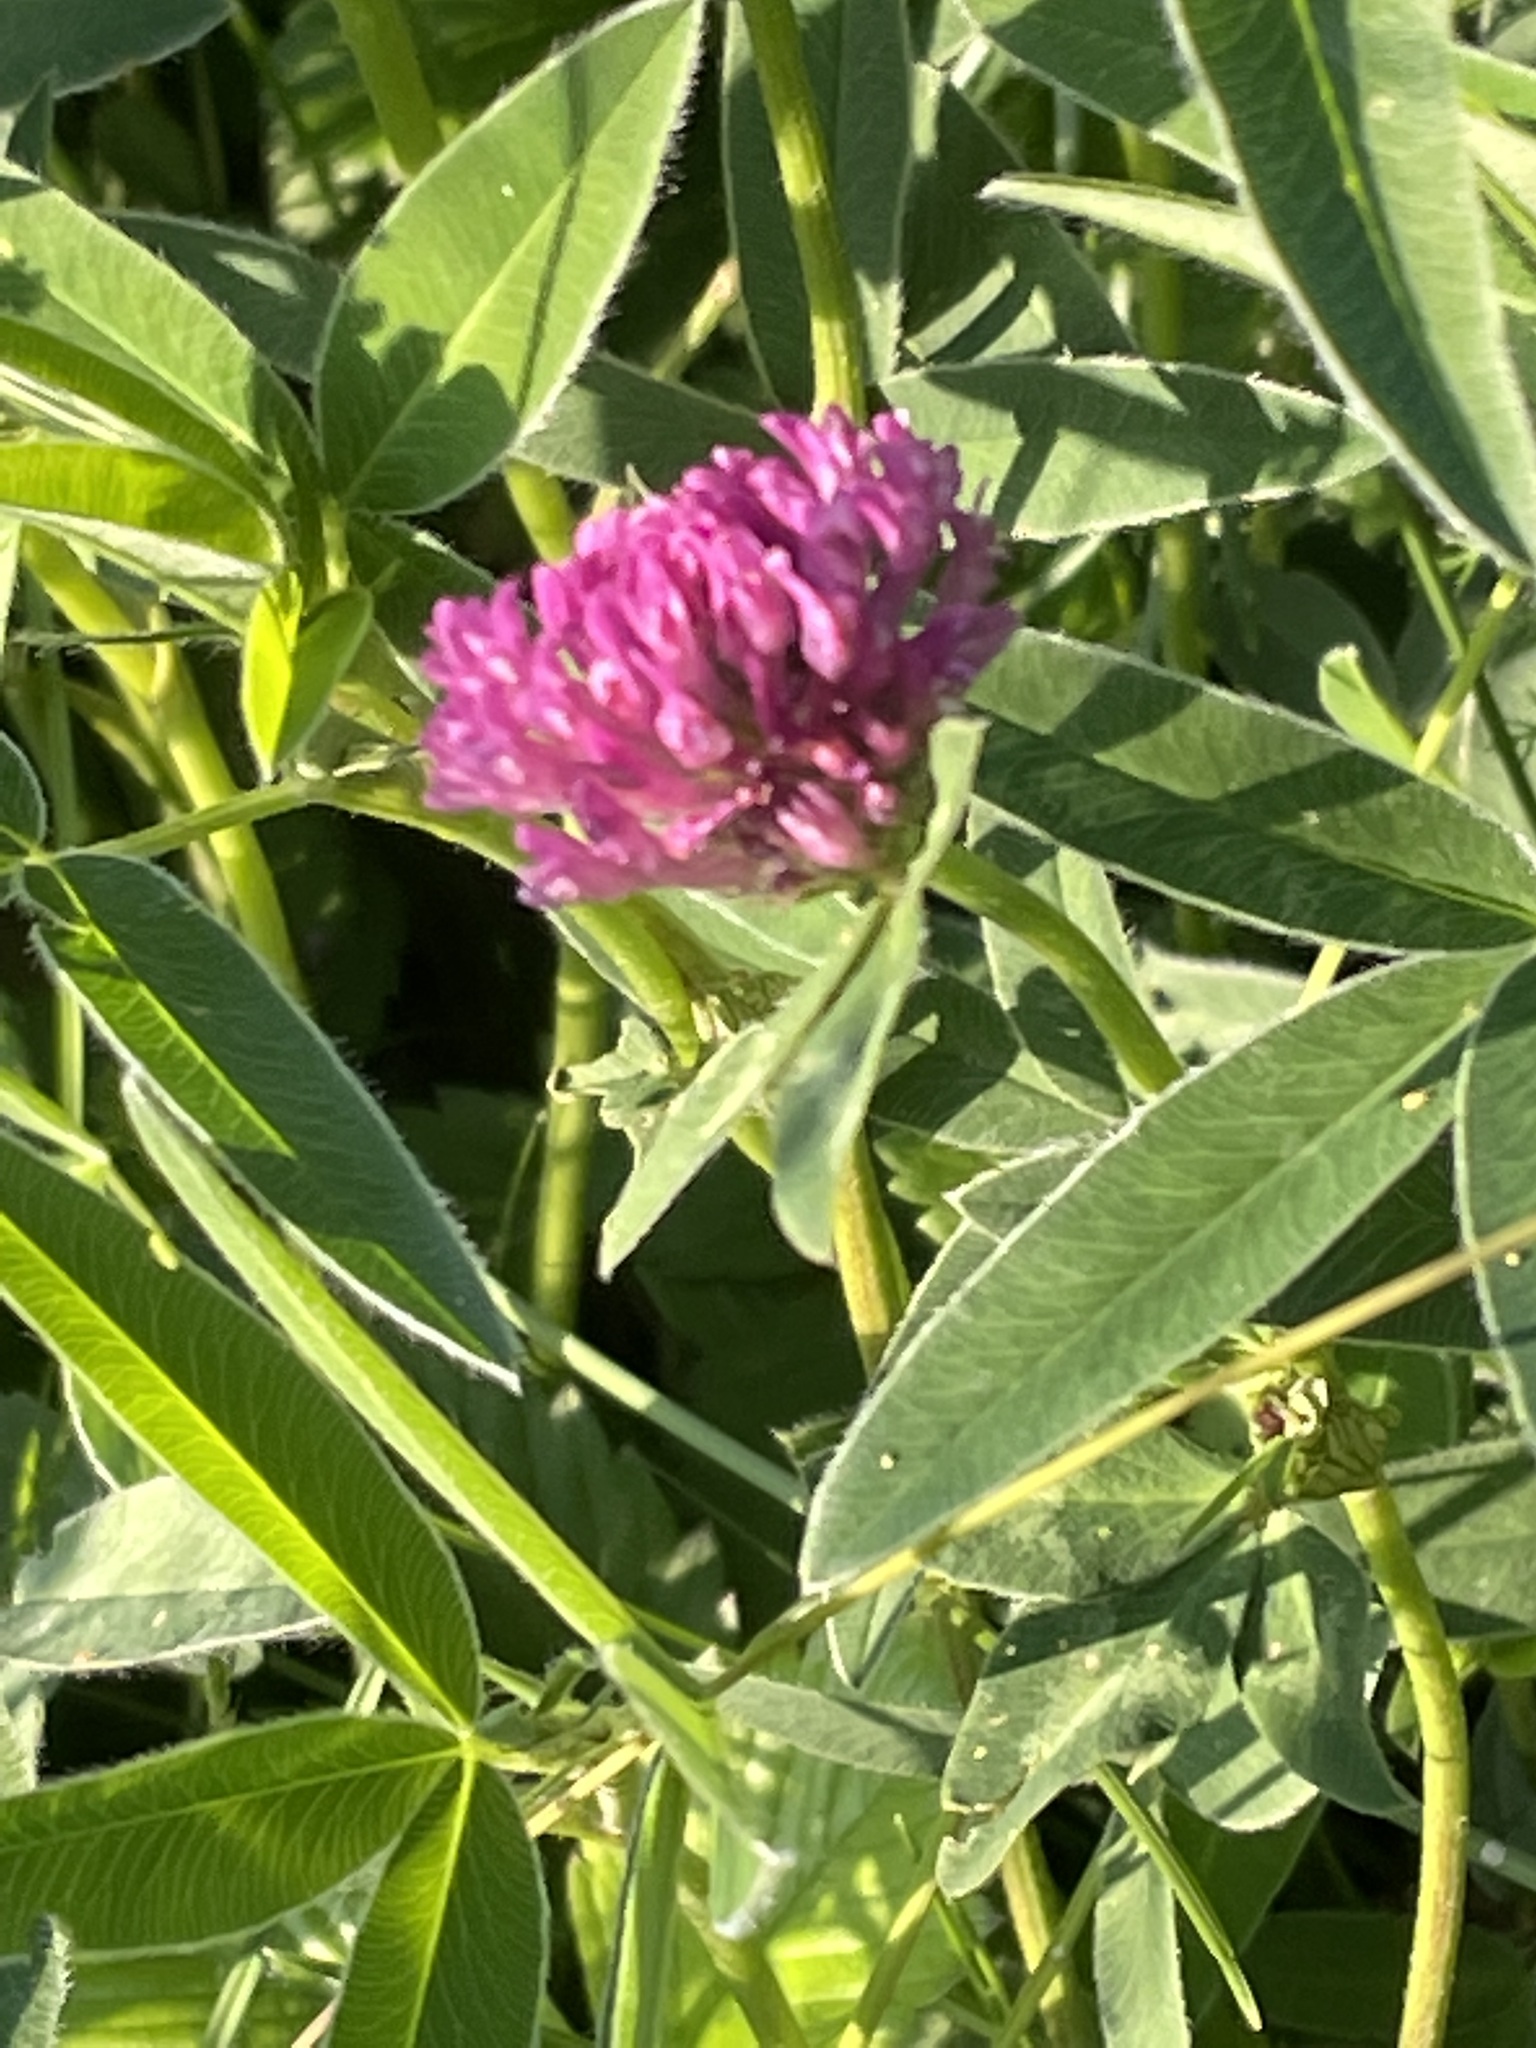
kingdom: Plantae
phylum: Tracheophyta
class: Magnoliopsida
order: Fabales
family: Fabaceae
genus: Trifolium
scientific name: Trifolium medium
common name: Zigzag clover
